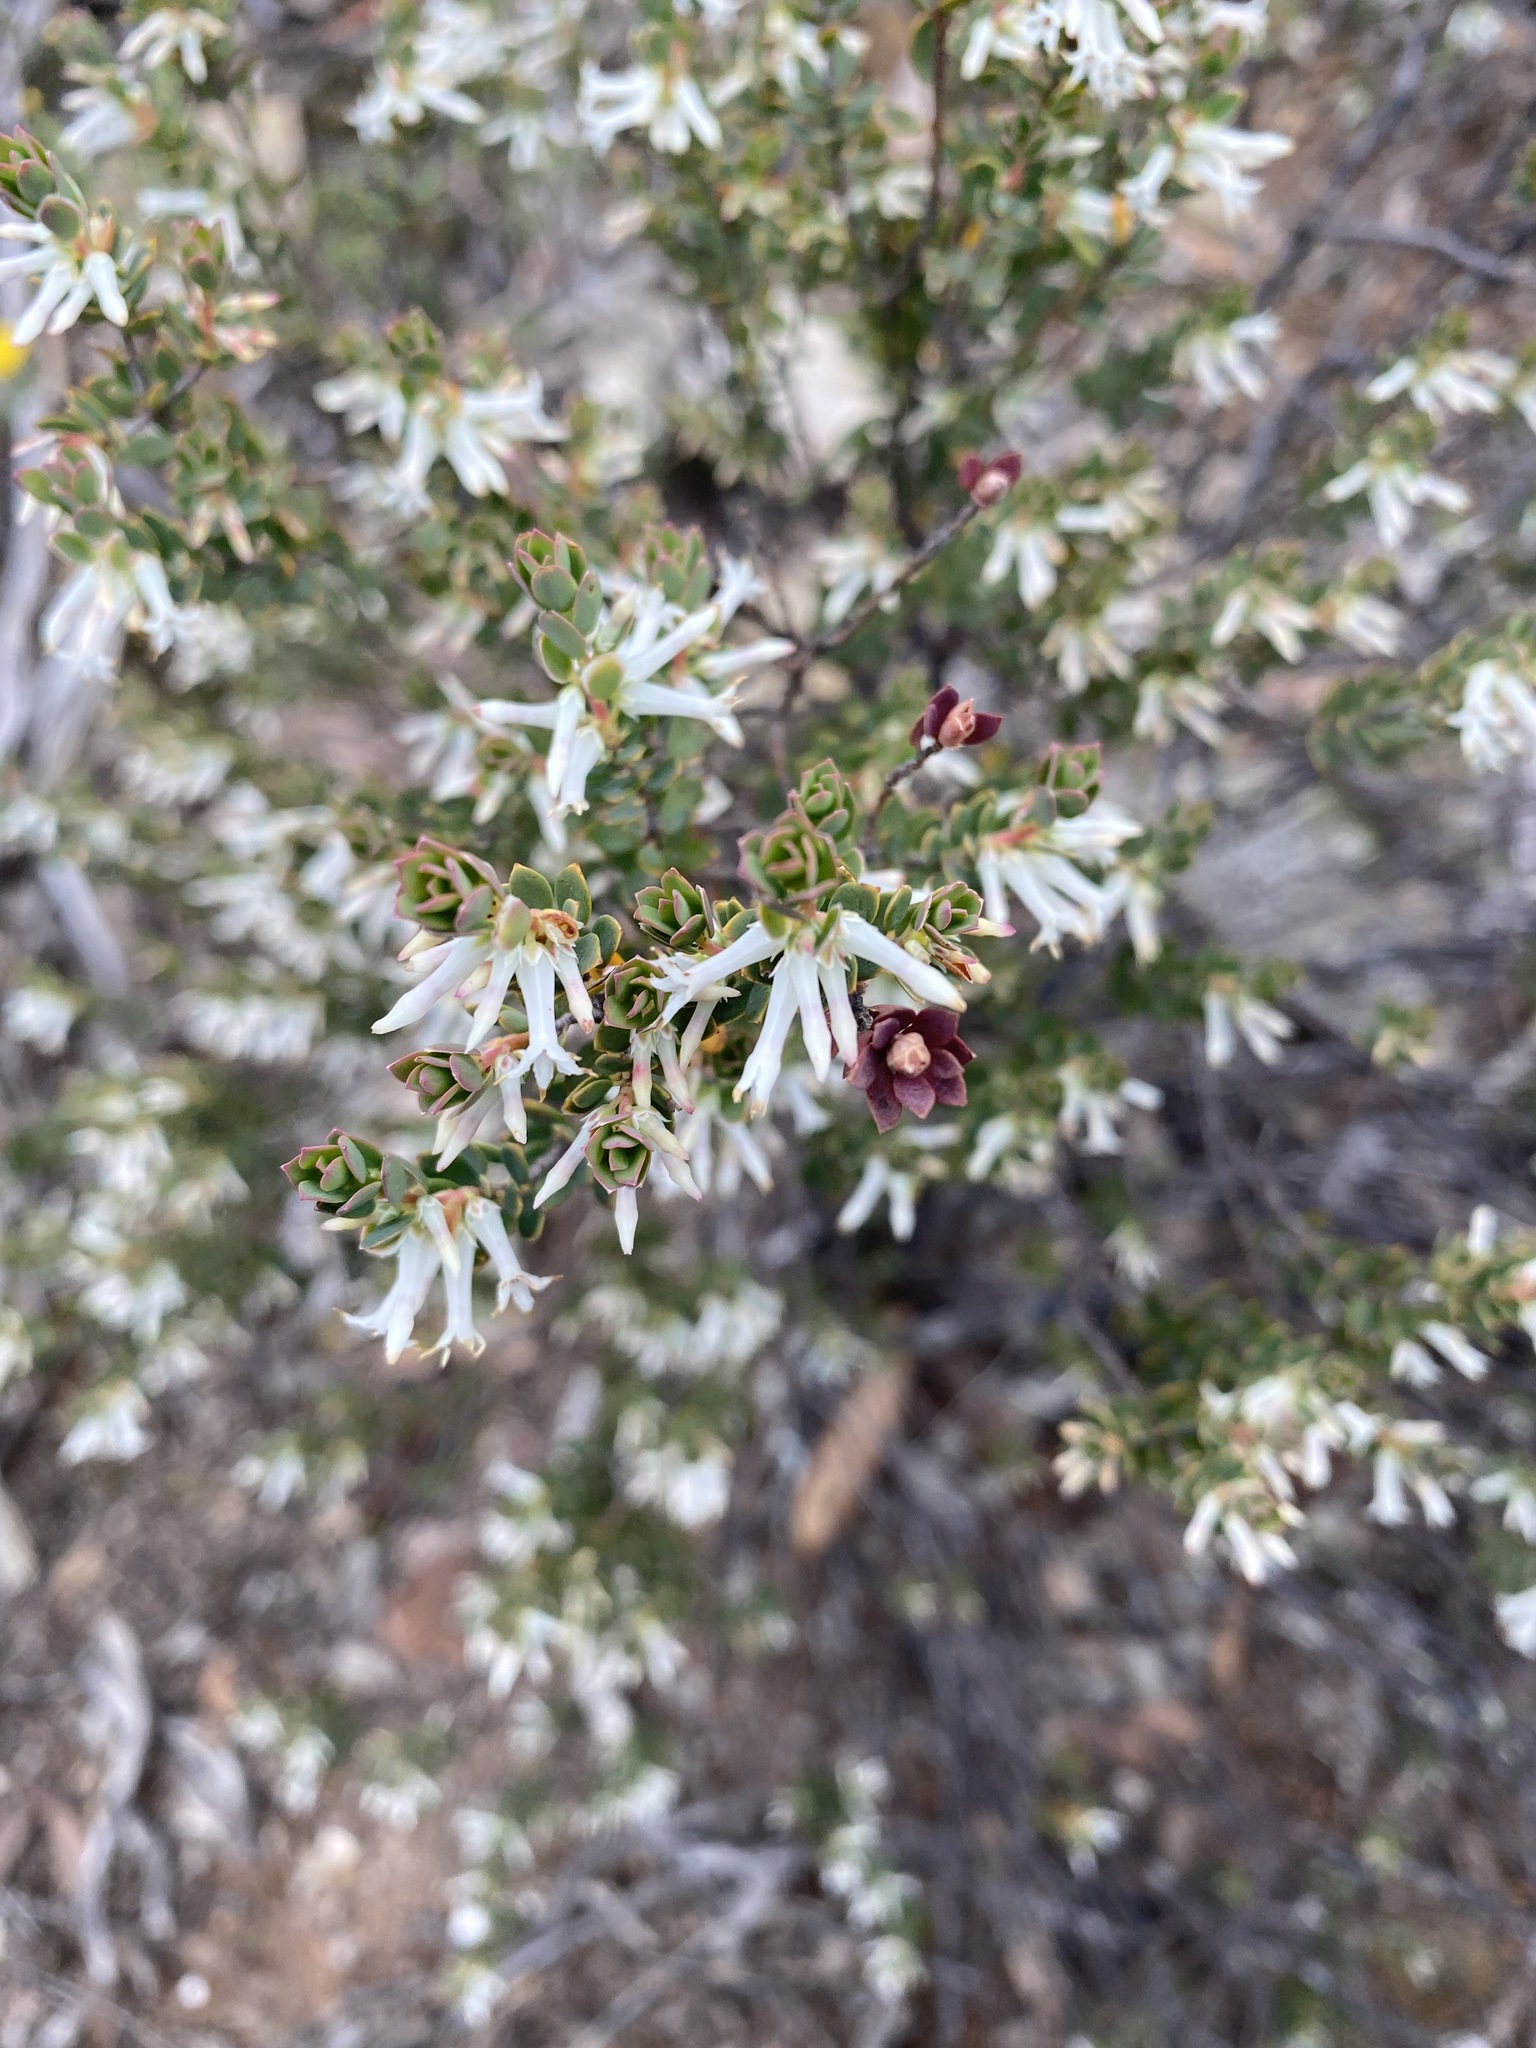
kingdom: Plantae
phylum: Tracheophyta
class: Magnoliopsida
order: Ericales
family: Ericaceae
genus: Brachyloma
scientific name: Brachyloma daphnoides
